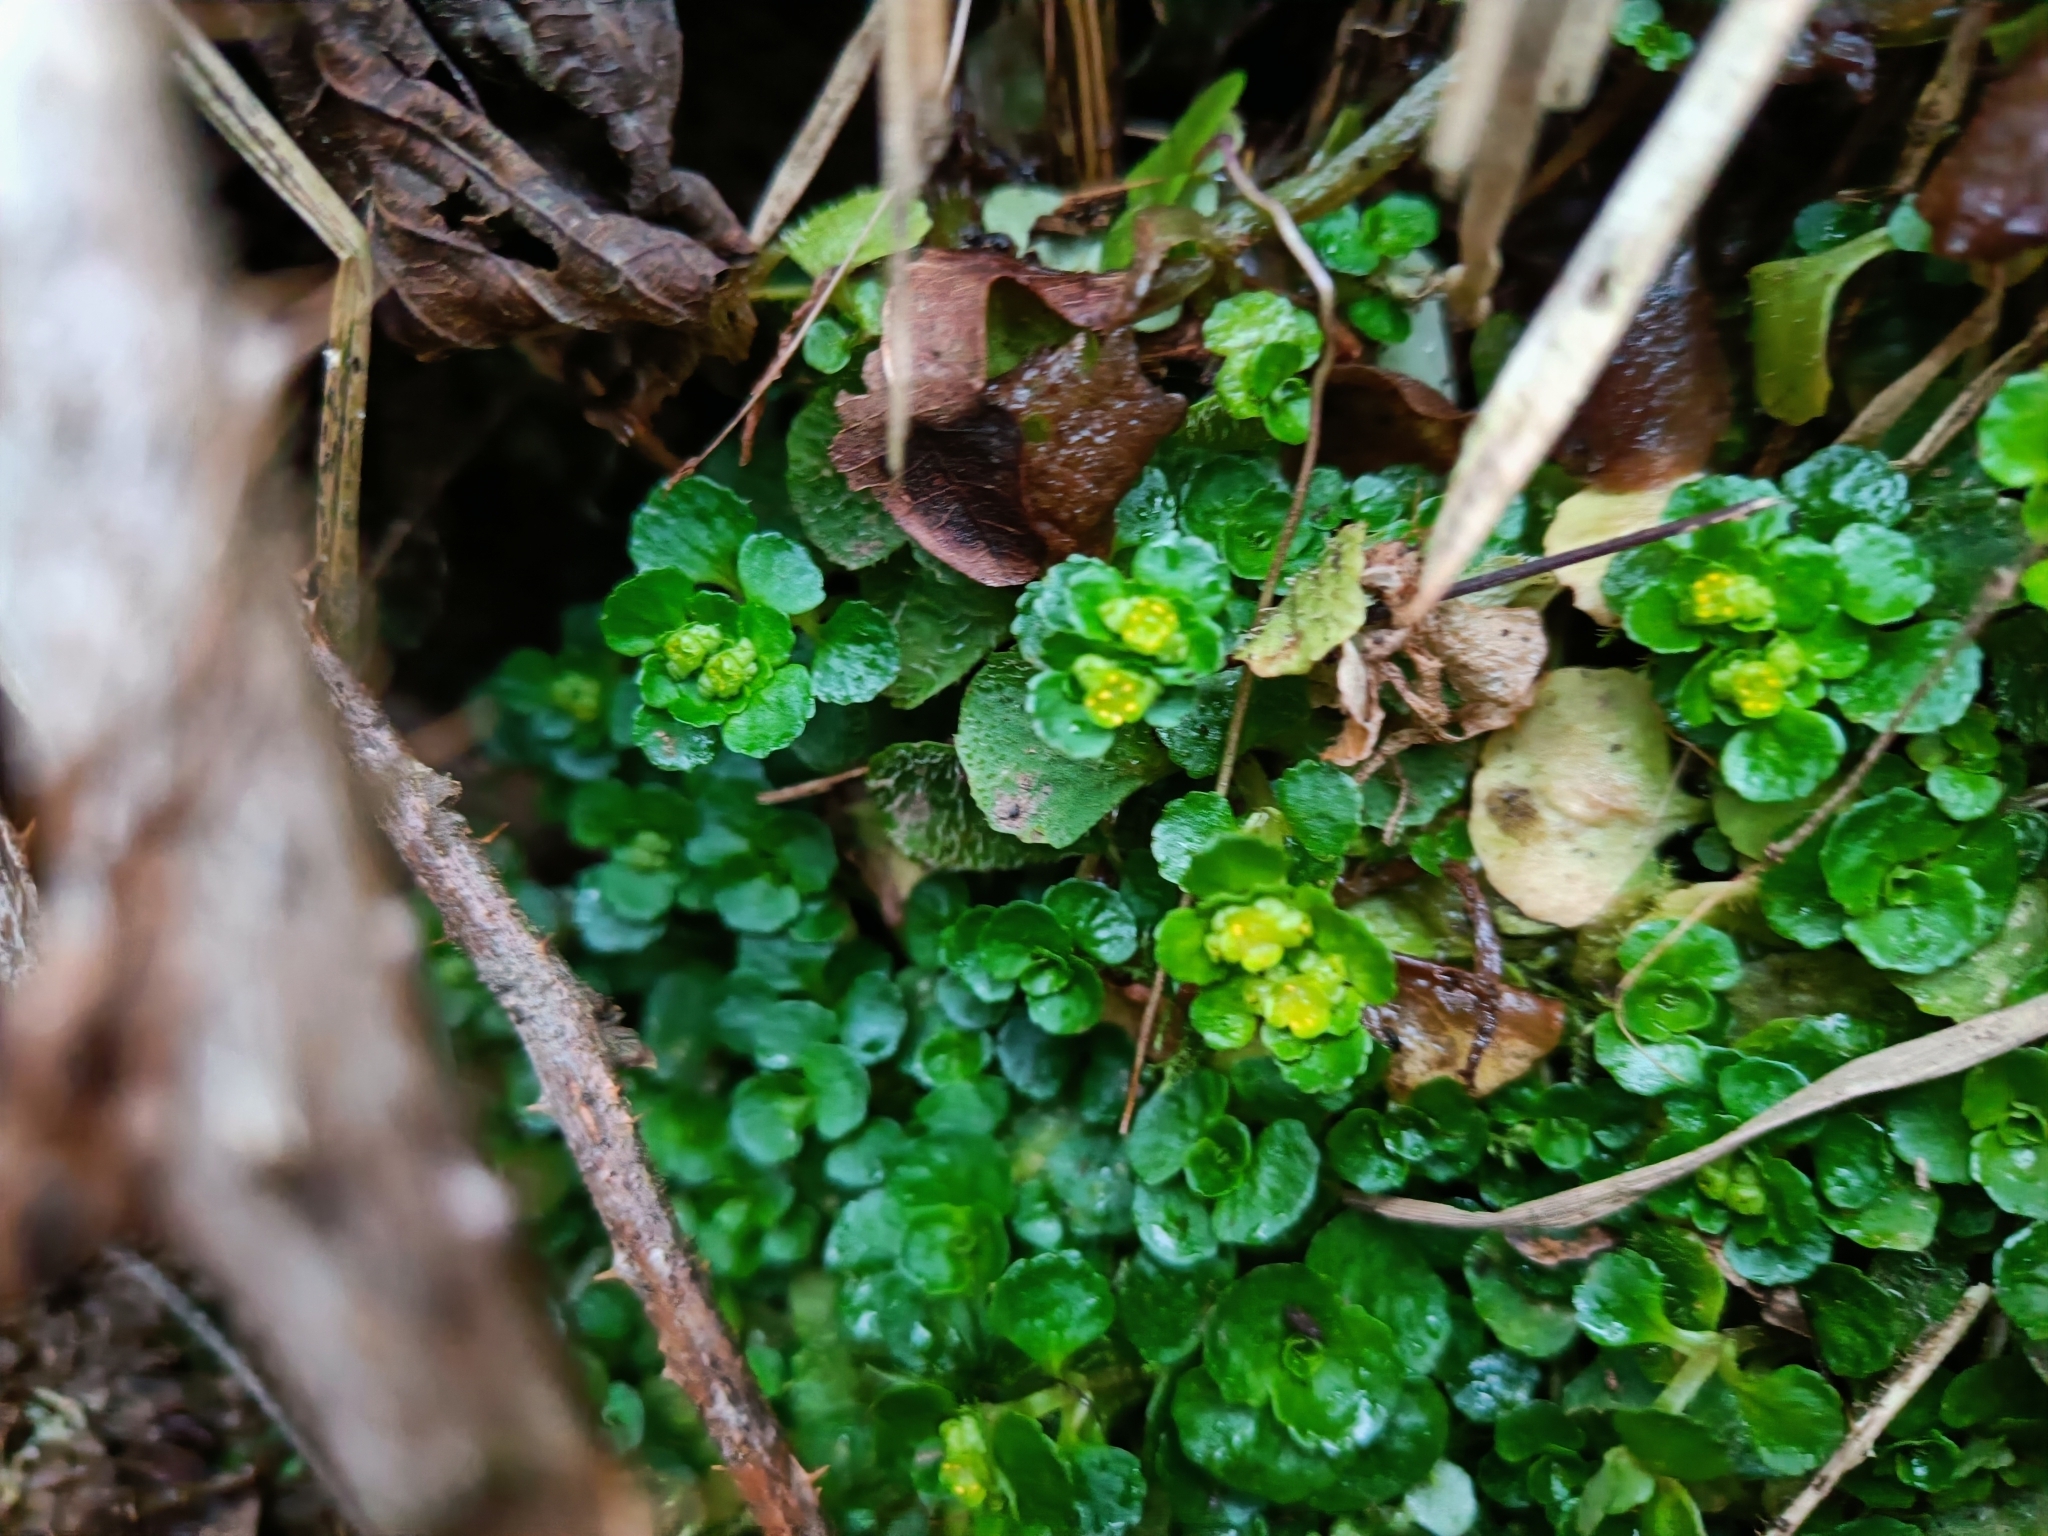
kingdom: Plantae
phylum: Tracheophyta
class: Magnoliopsida
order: Saxifragales
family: Saxifragaceae
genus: Chrysosplenium
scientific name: Chrysosplenium oppositifolium
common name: Opposite-leaved golden-saxifrage
